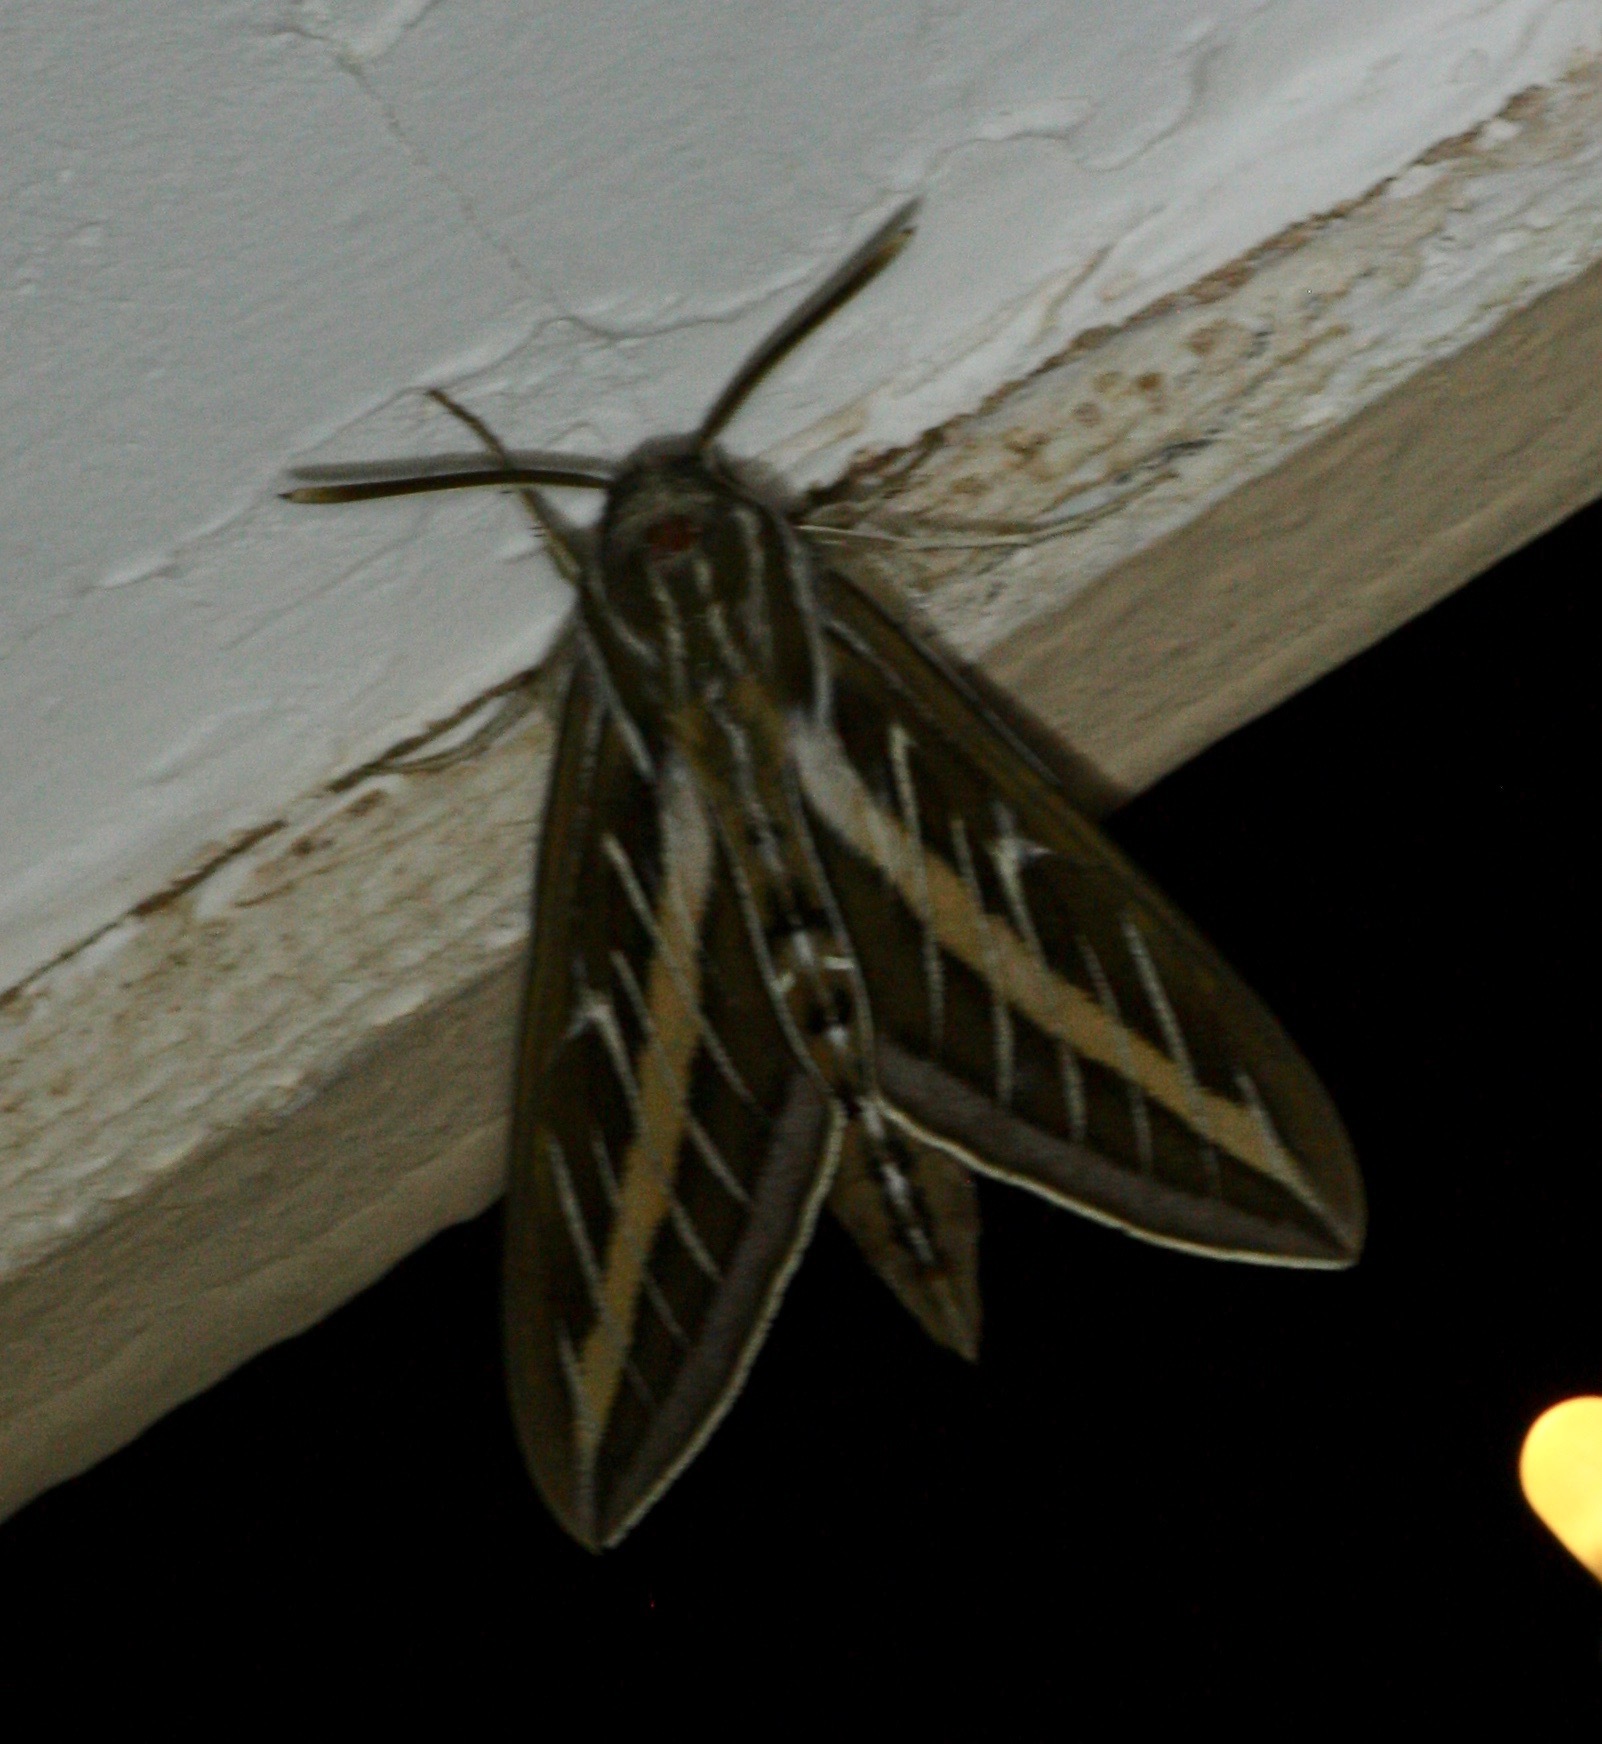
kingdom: Animalia
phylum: Arthropoda
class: Insecta
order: Lepidoptera
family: Sphingidae
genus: Hyles
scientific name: Hyles lineata
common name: White-lined sphinx
